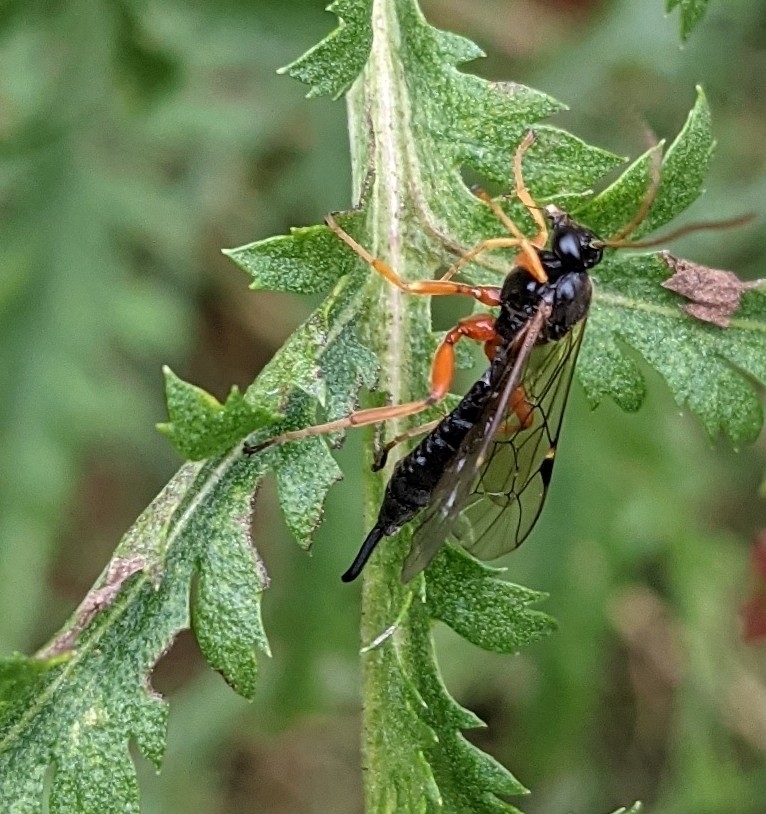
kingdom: Animalia
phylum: Arthropoda
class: Insecta
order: Hymenoptera
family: Ichneumonidae
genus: Apechthis
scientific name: Apechthis compunctor
